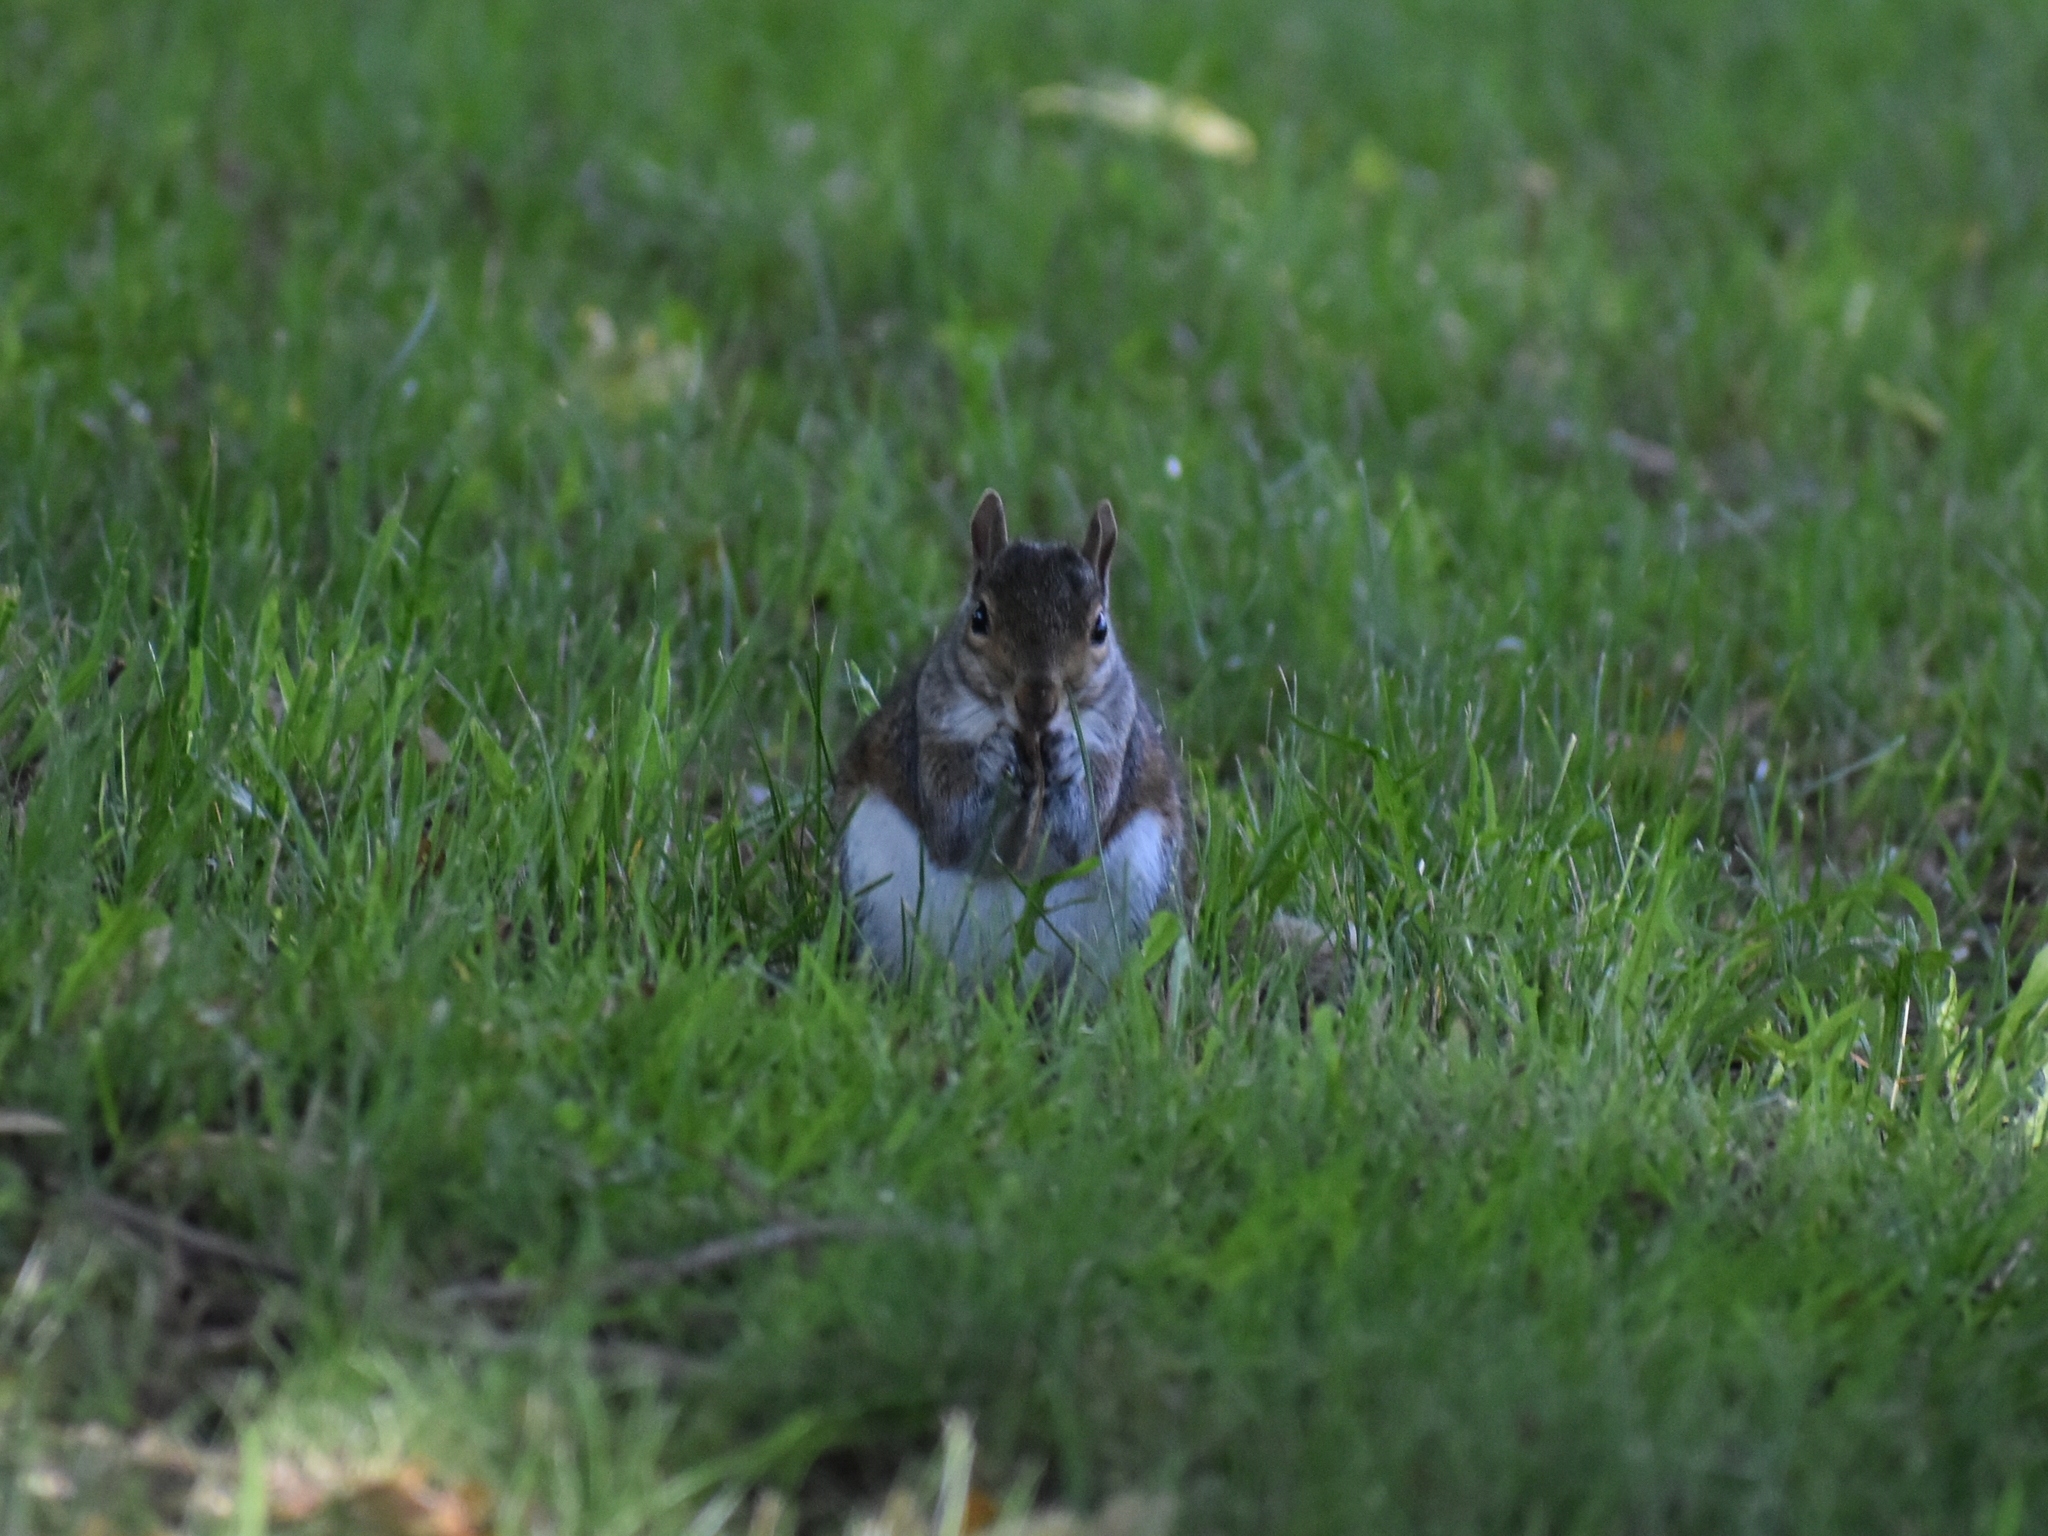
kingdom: Animalia
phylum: Chordata
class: Mammalia
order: Rodentia
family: Sciuridae
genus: Sciurus
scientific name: Sciurus carolinensis
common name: Eastern gray squirrel
